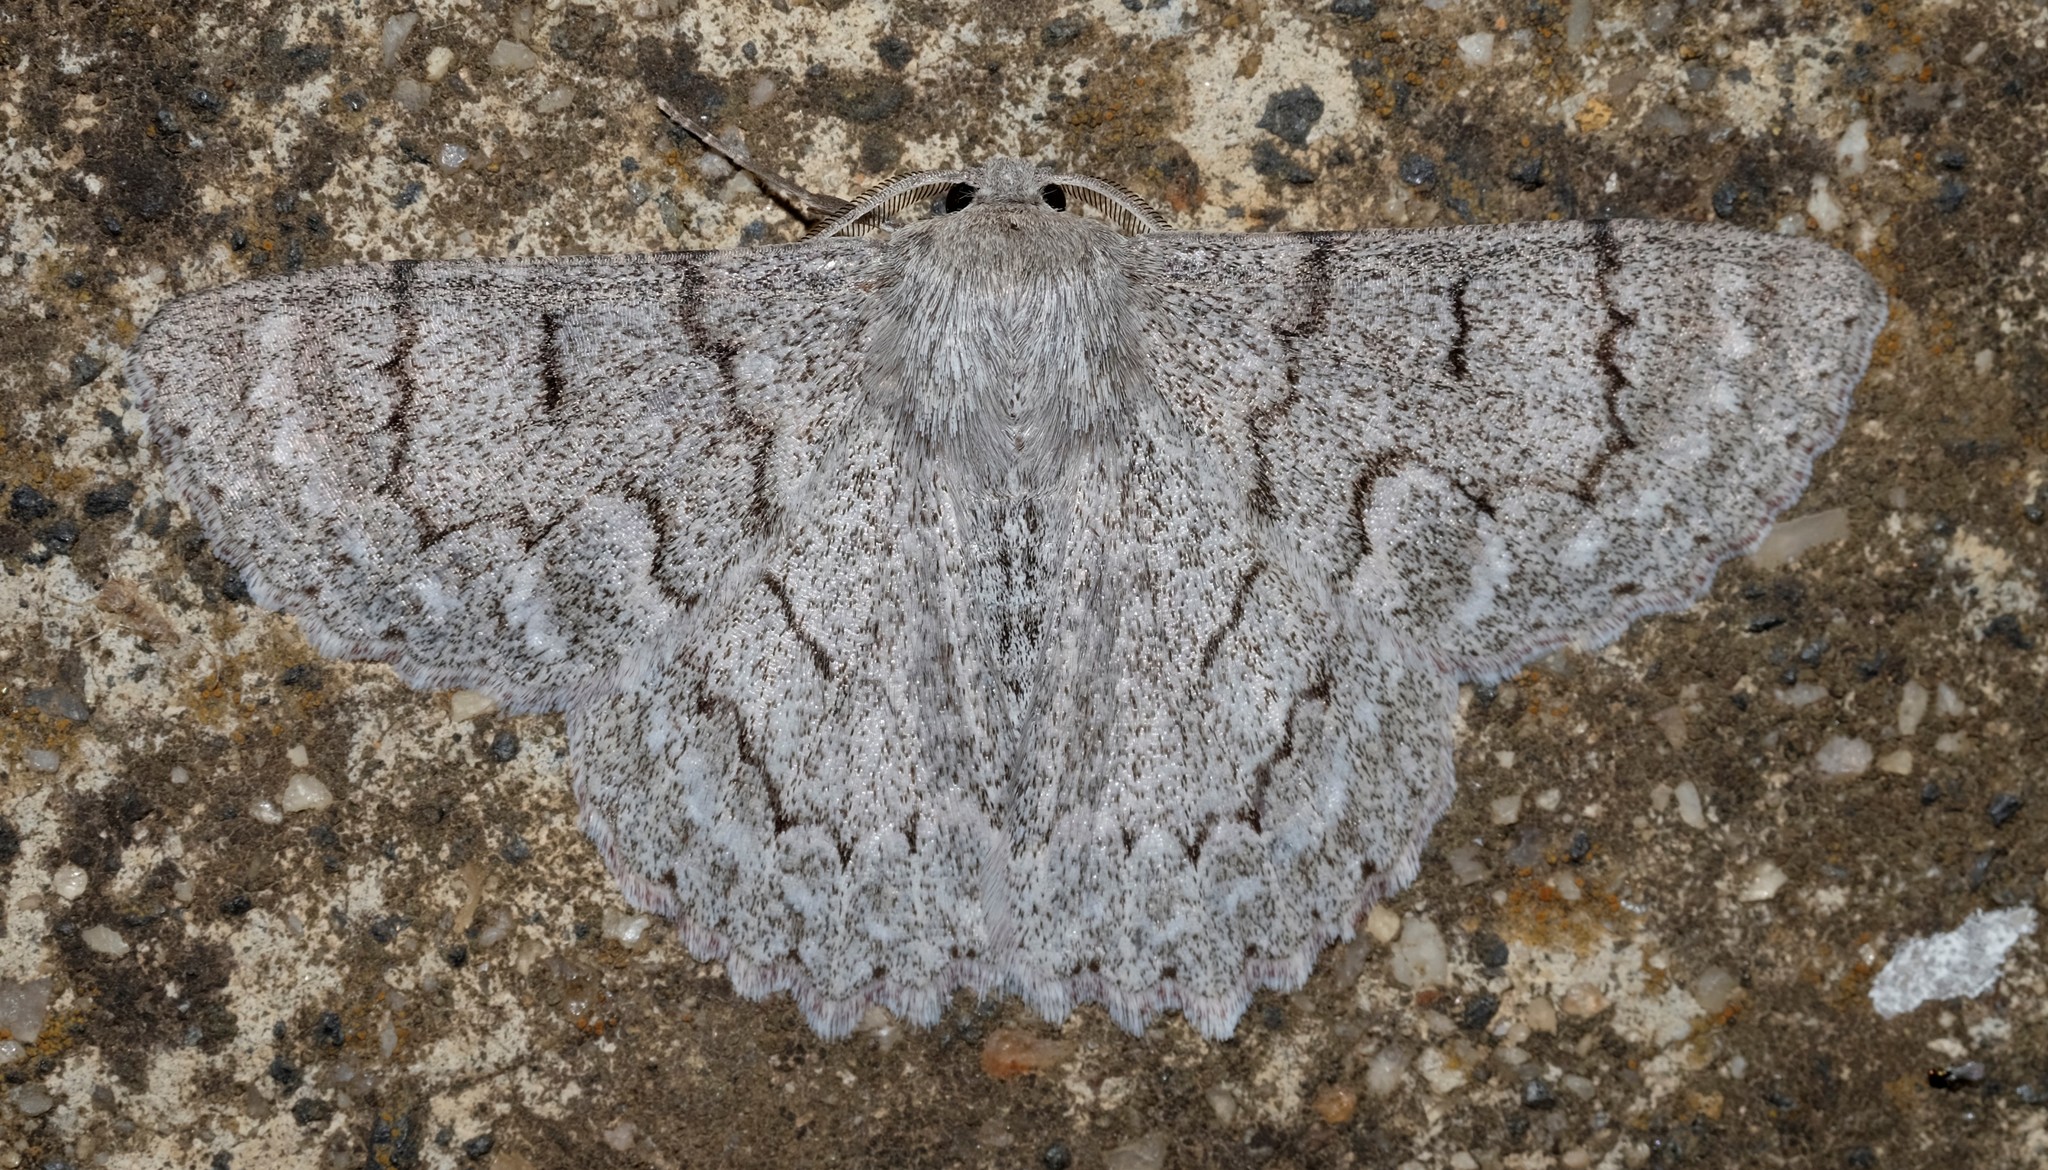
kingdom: Animalia
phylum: Arthropoda
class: Insecta
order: Lepidoptera
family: Geometridae
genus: Crypsiphona
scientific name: Crypsiphona ocultaria
